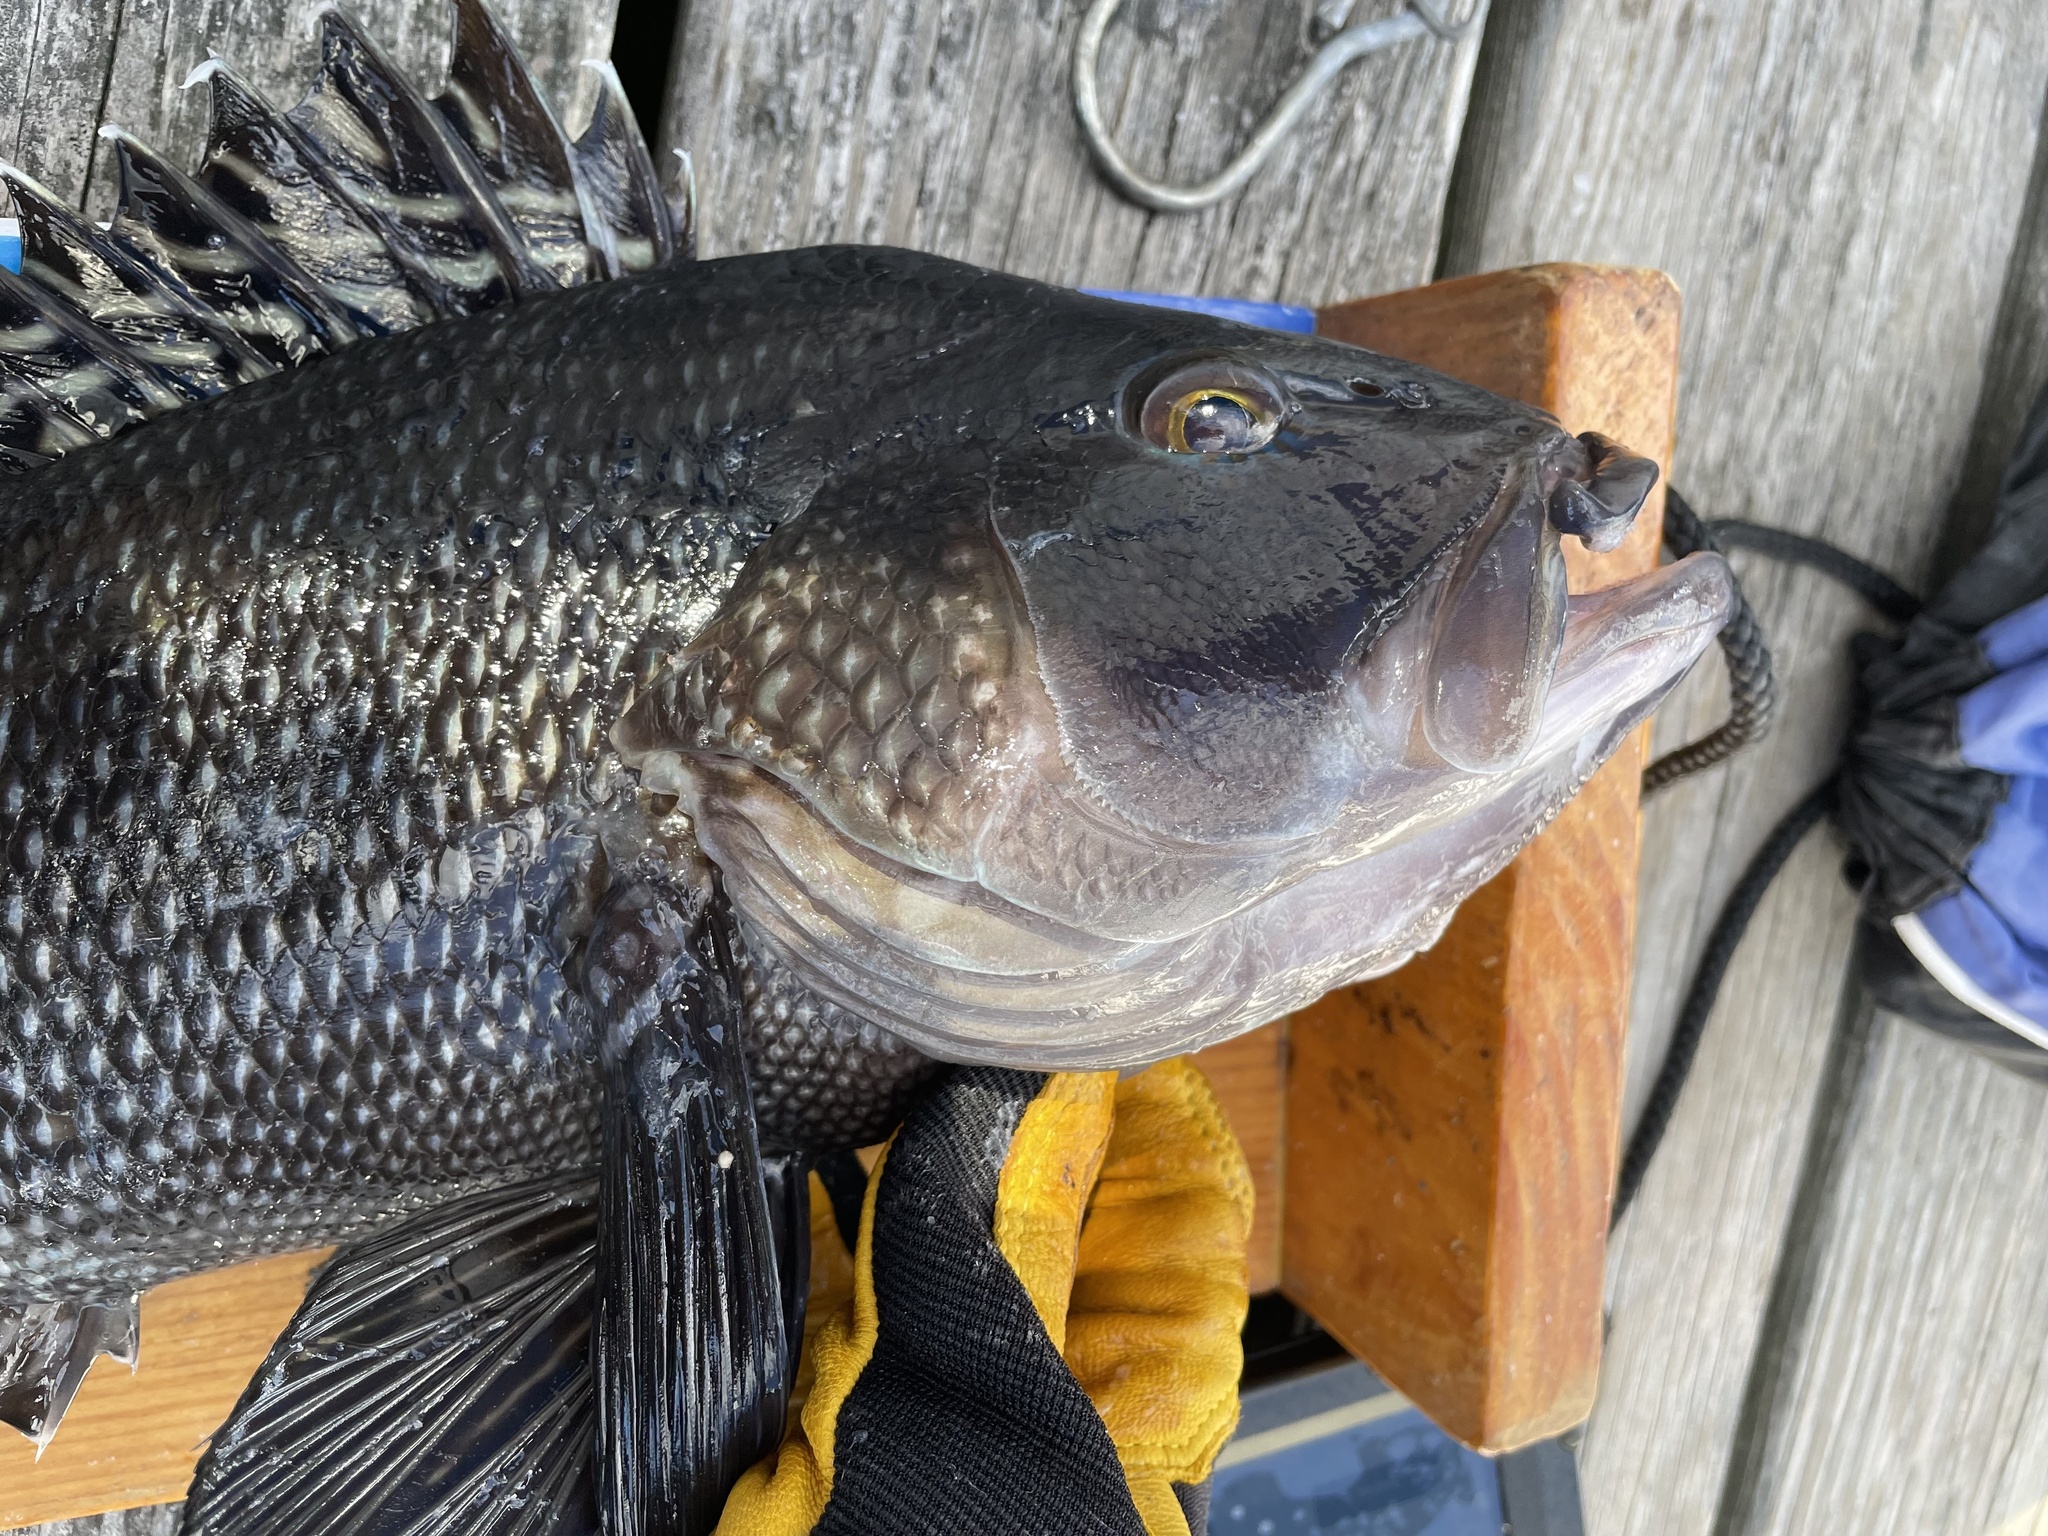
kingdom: Animalia
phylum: Chordata
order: Perciformes
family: Serranidae
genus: Centropristis
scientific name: Centropristis striata
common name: Black sea bass
